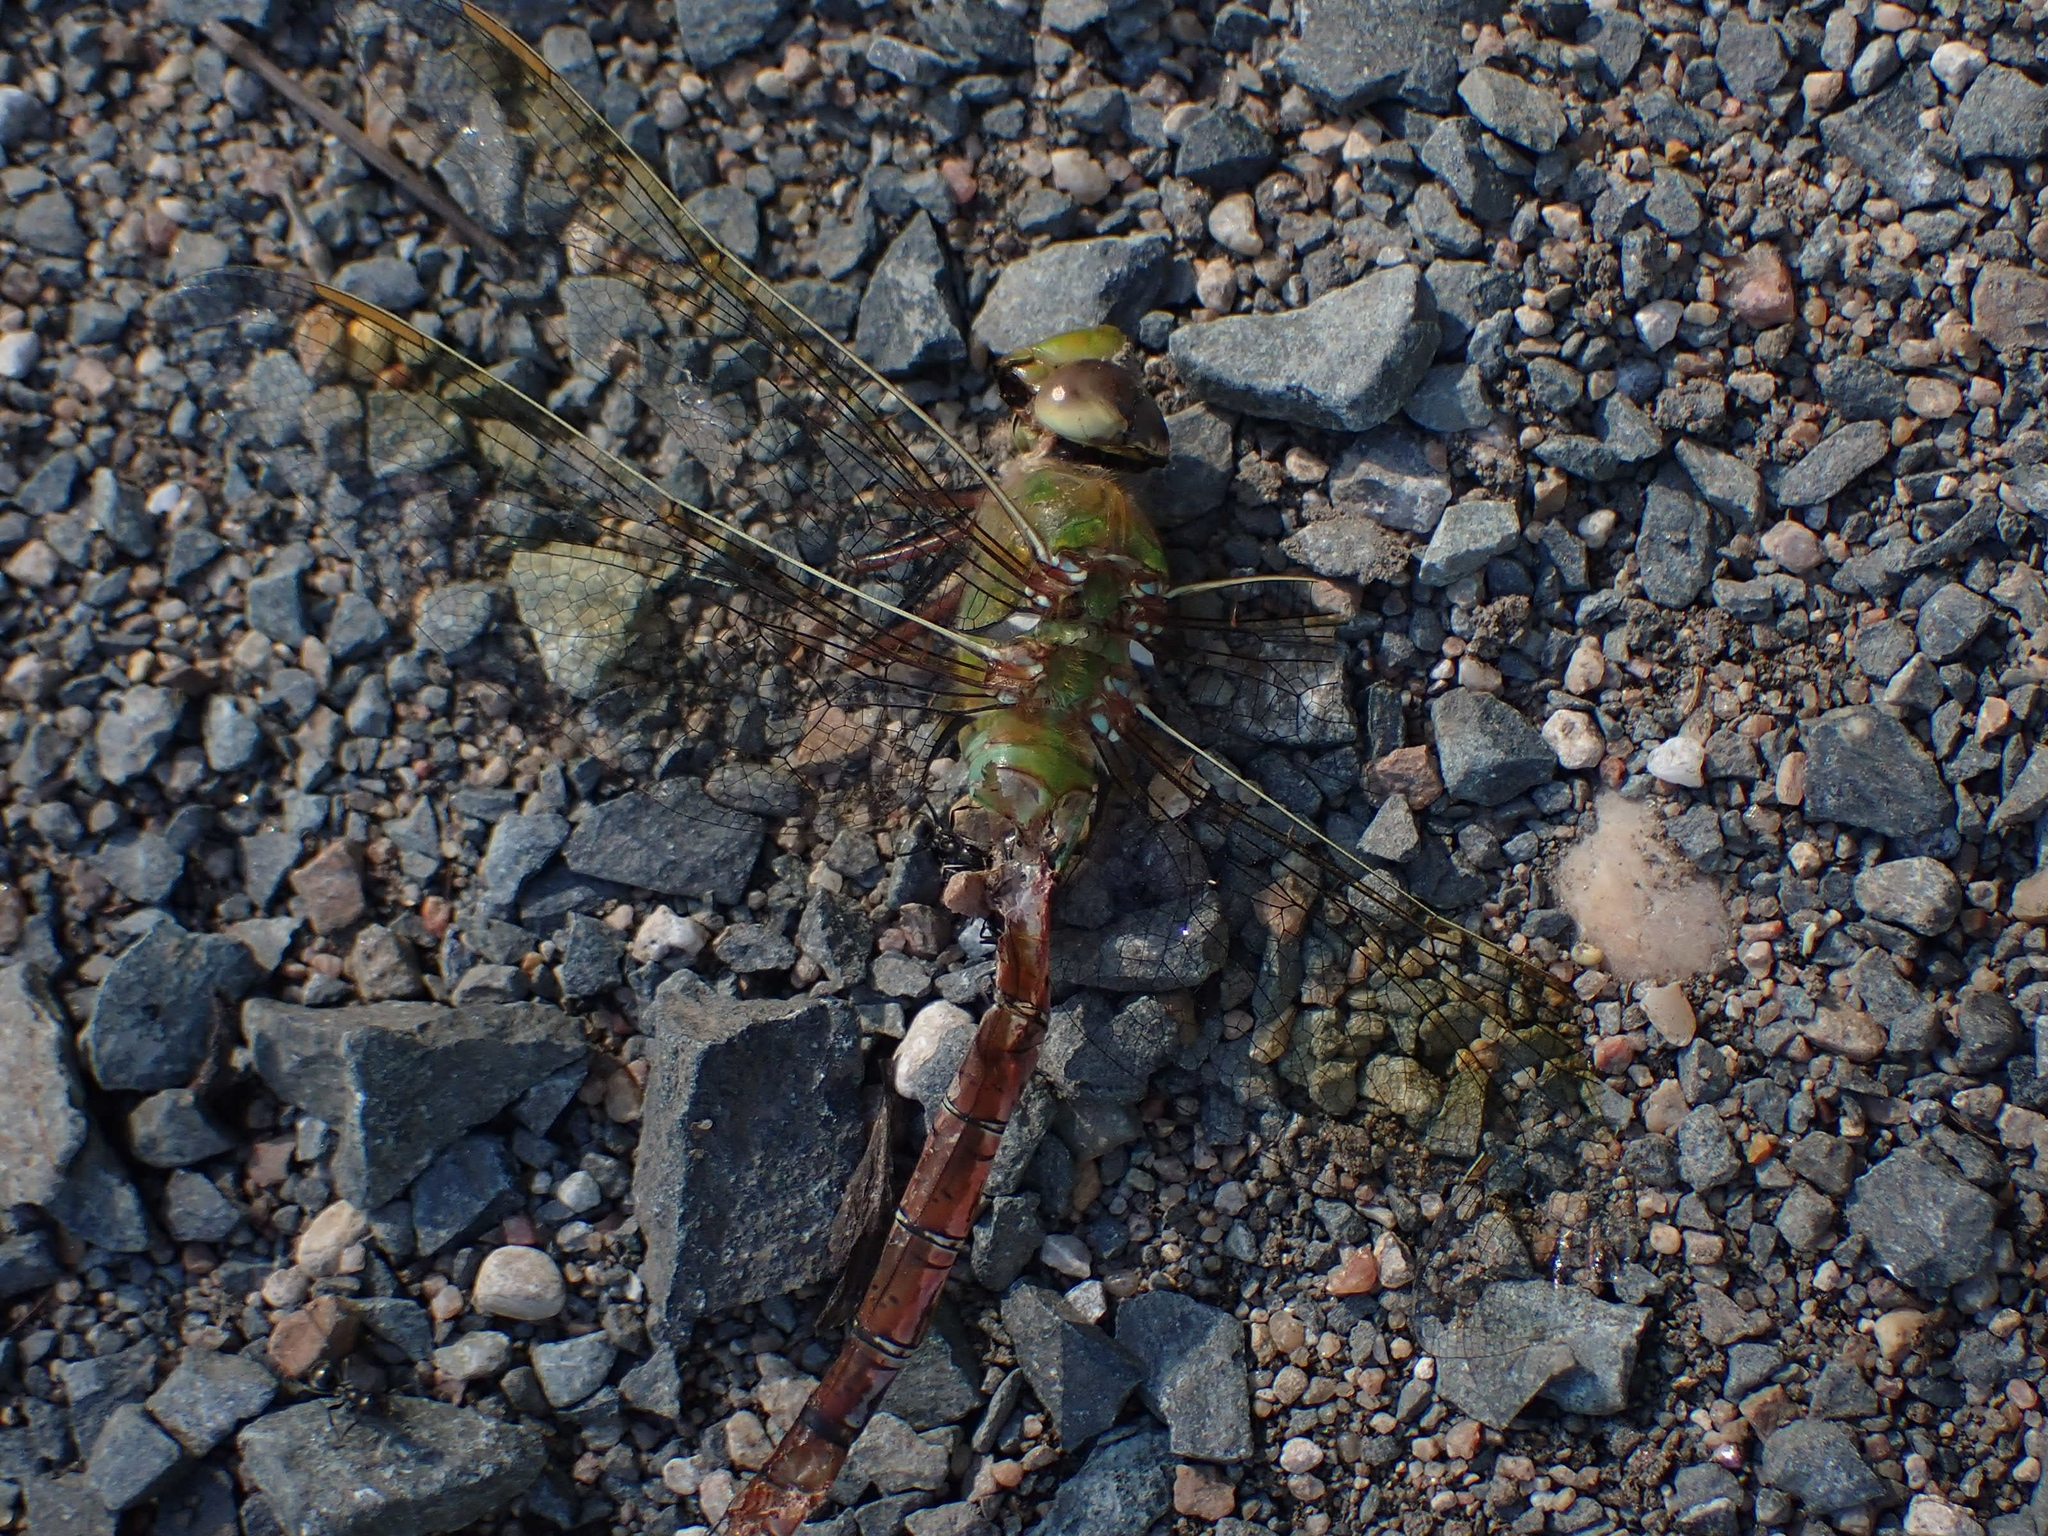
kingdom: Animalia
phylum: Arthropoda
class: Insecta
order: Odonata
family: Aeshnidae
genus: Anax
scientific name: Anax junius
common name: Common green darner
